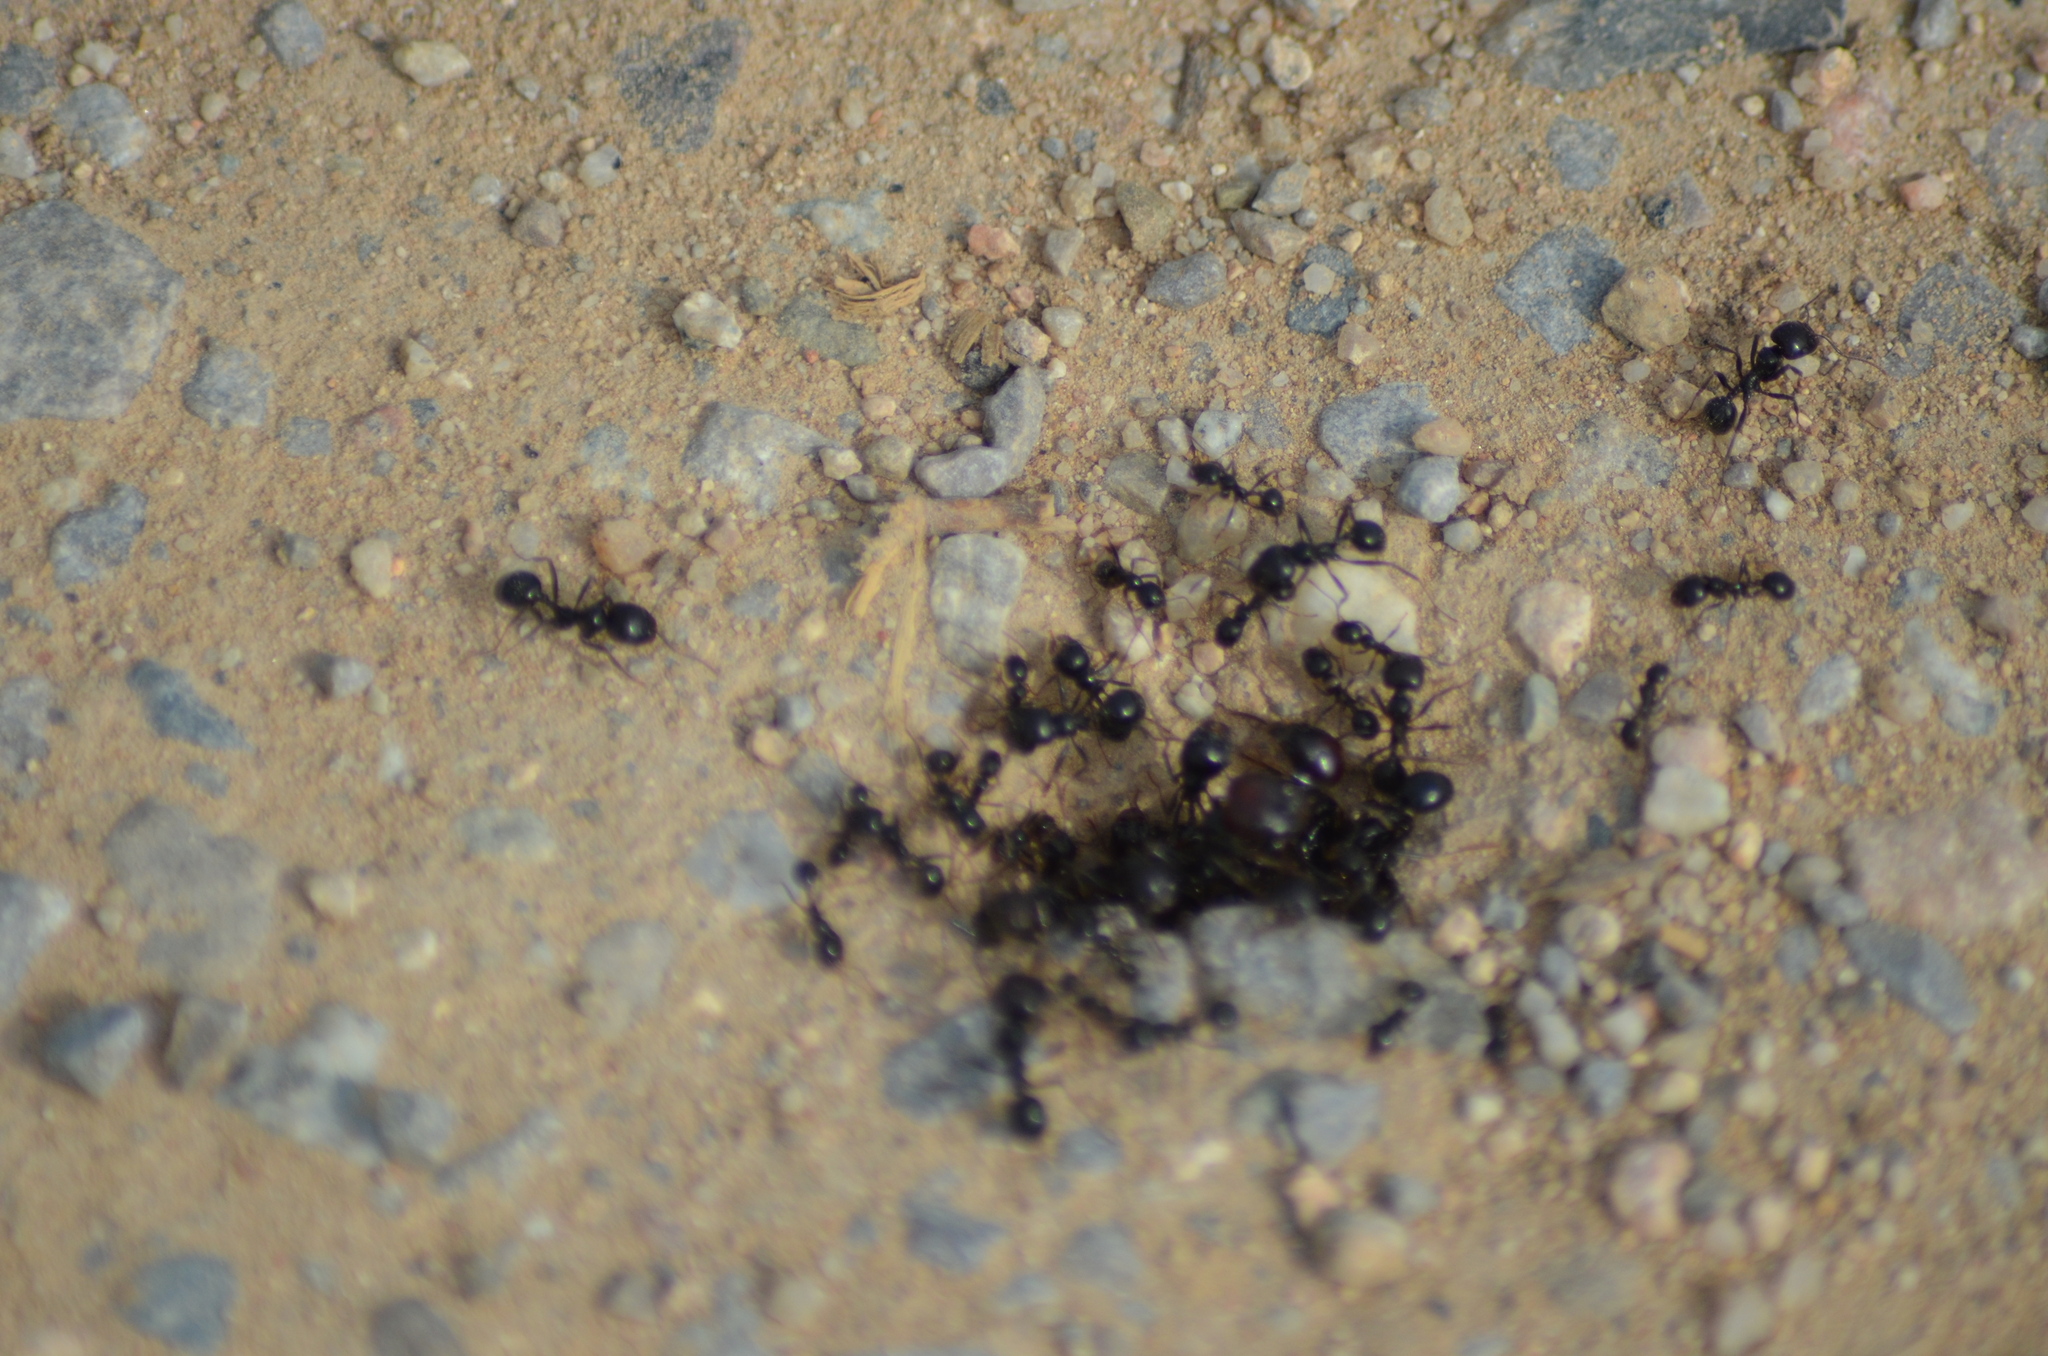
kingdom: Animalia
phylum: Arthropoda
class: Insecta
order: Hymenoptera
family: Formicidae
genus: Messor
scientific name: Messor barbarus
